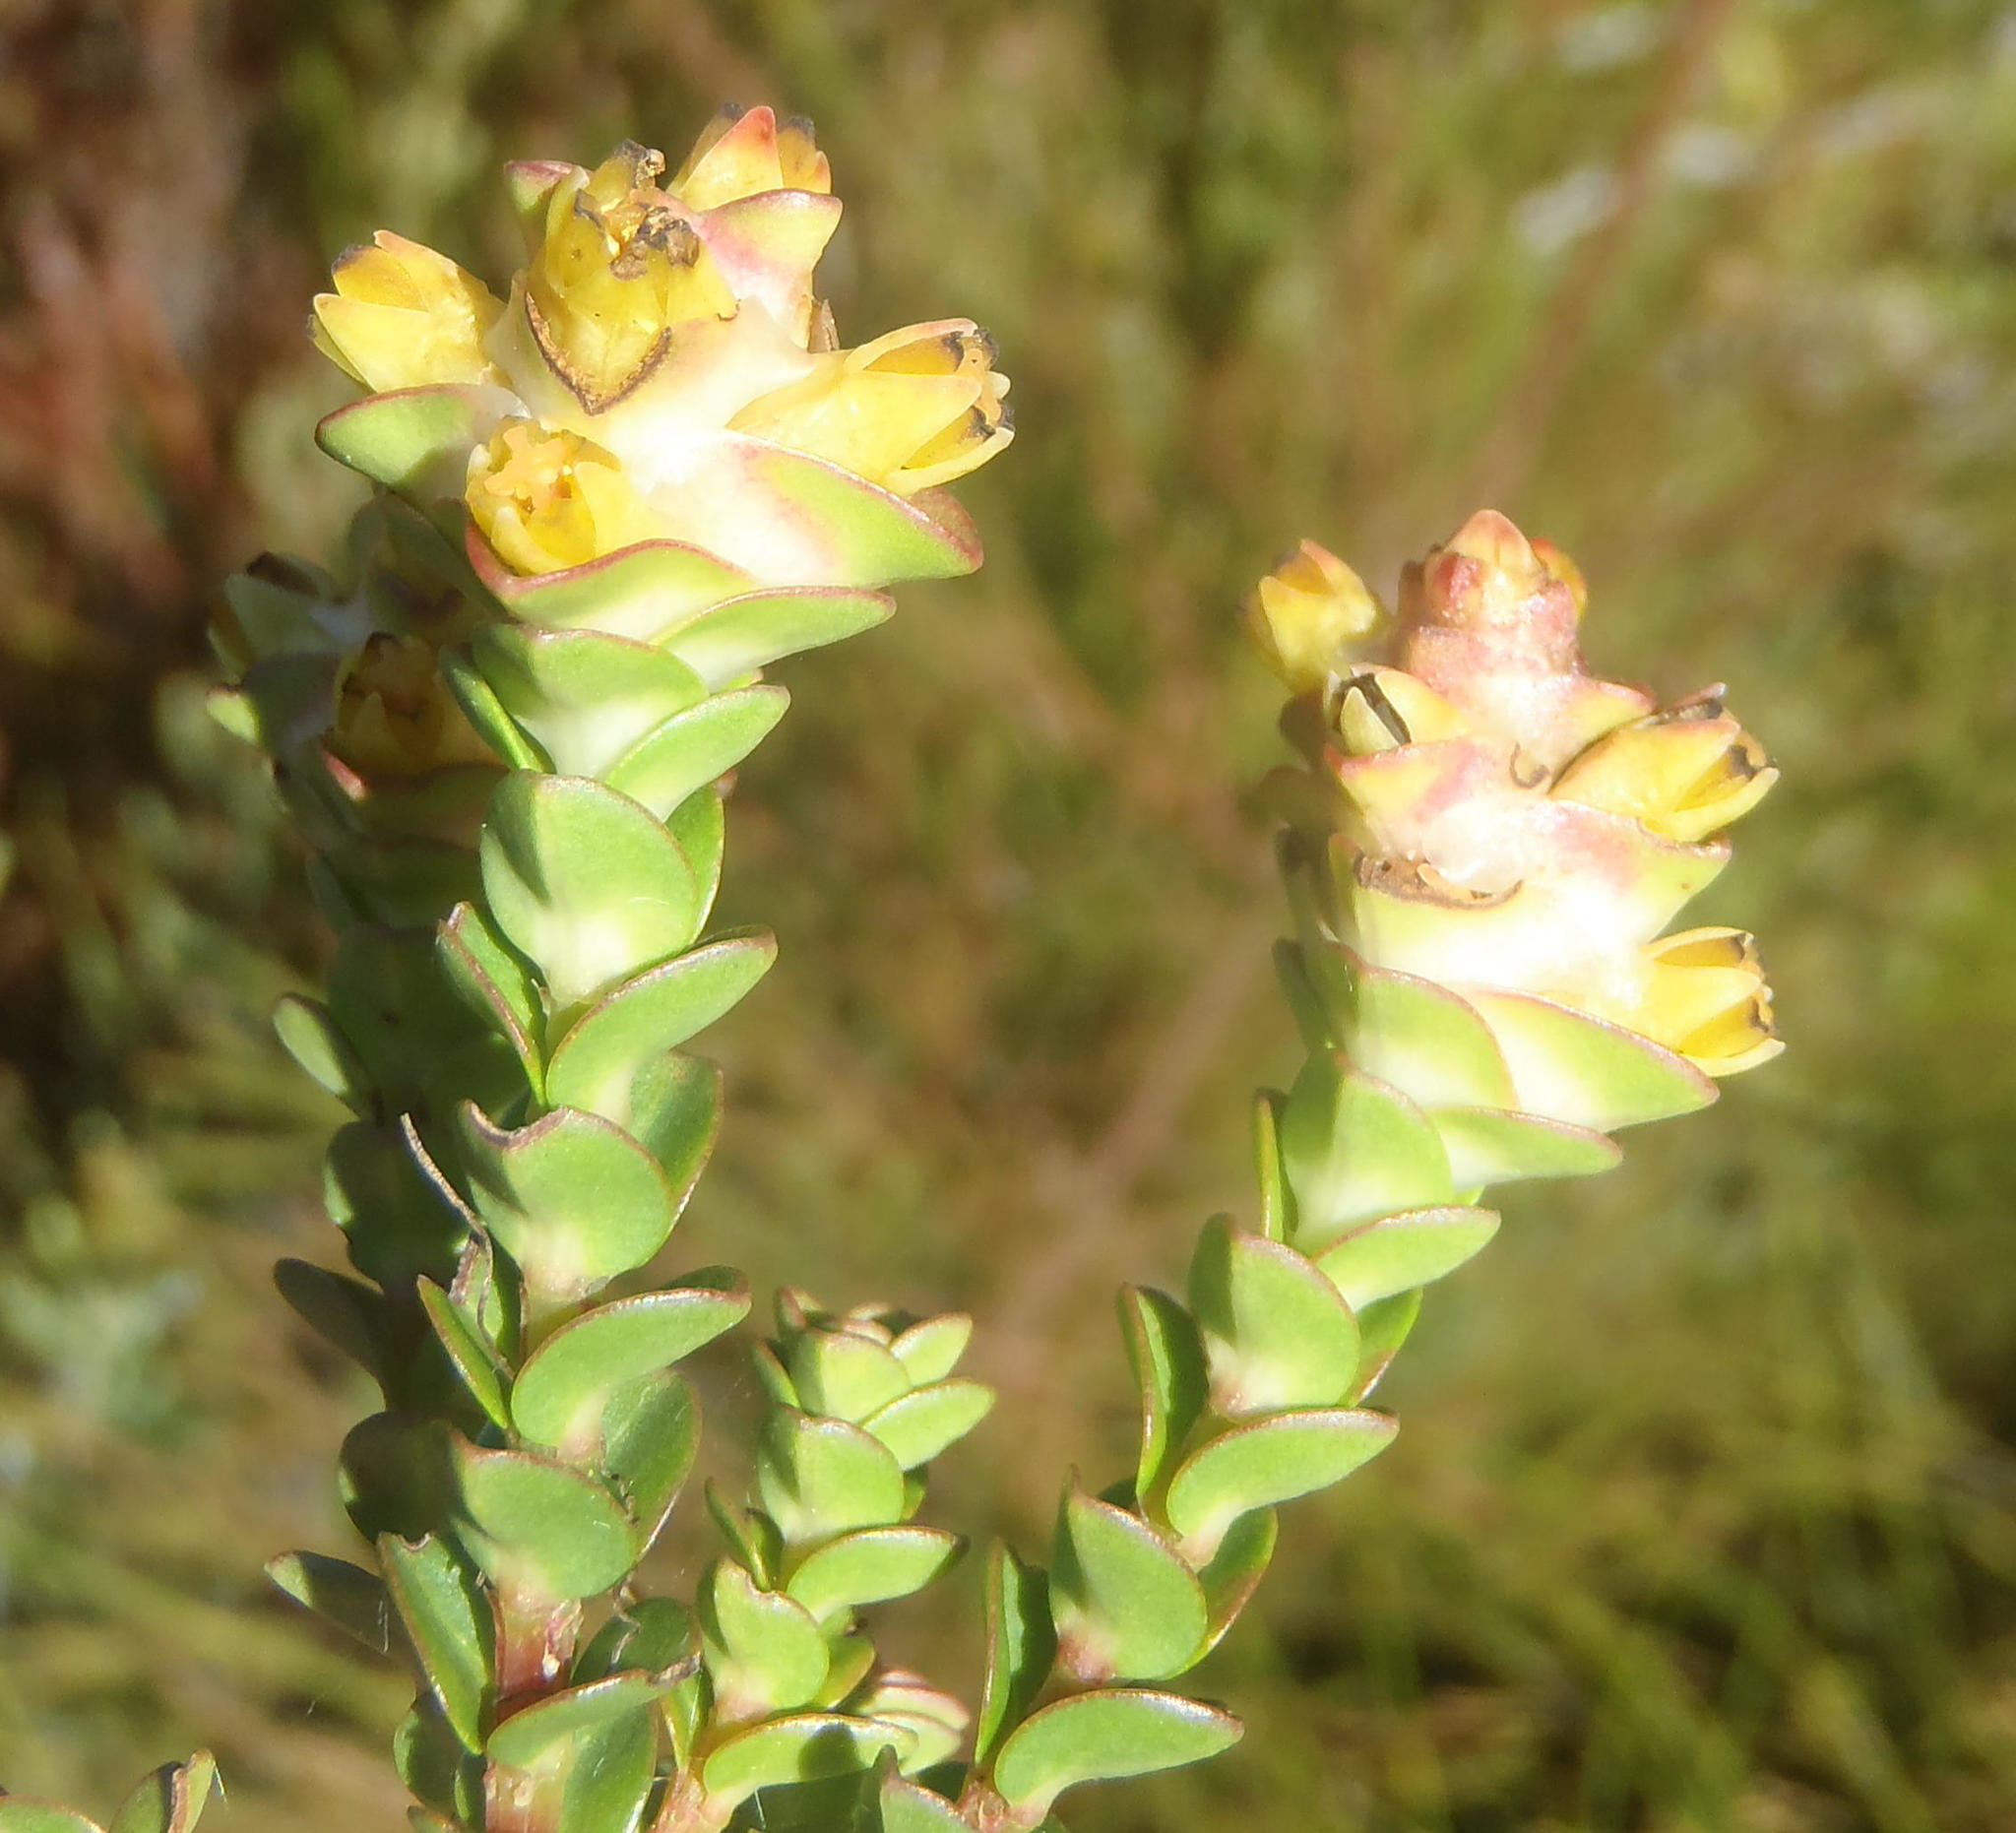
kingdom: Plantae
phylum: Tracheophyta
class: Magnoliopsida
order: Myrtales
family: Penaeaceae
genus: Penaea
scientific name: Penaea cneorum
